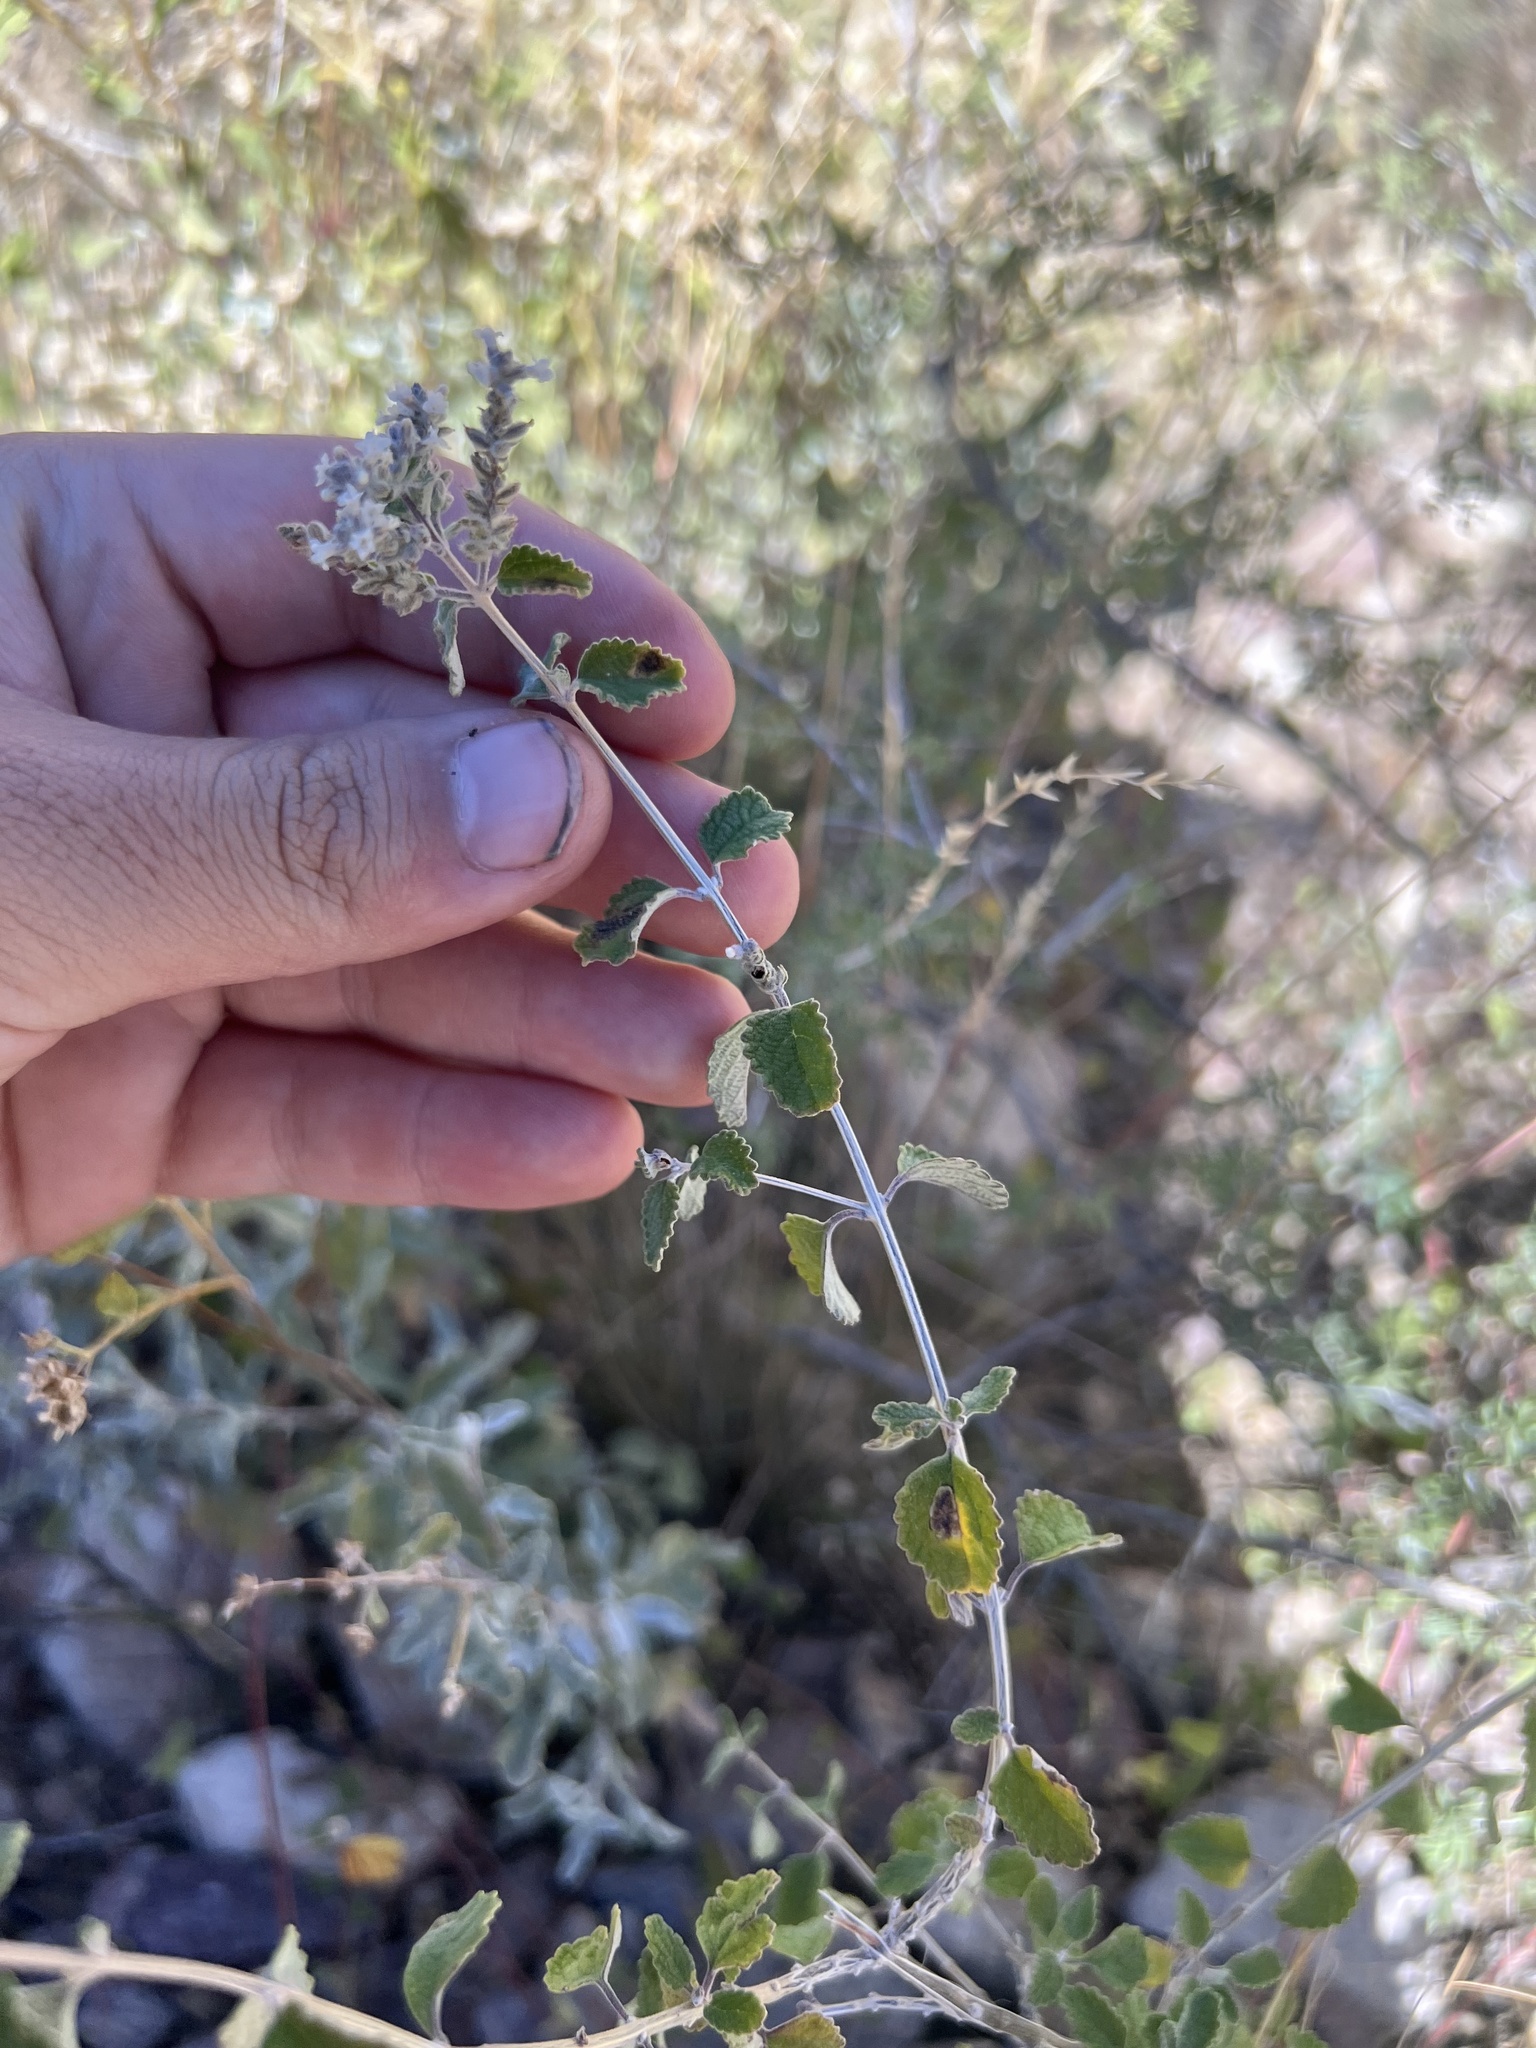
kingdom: Plantae
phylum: Tracheophyta
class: Magnoliopsida
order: Lamiales
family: Verbenaceae
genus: Aloysia
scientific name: Aloysia wrightii
